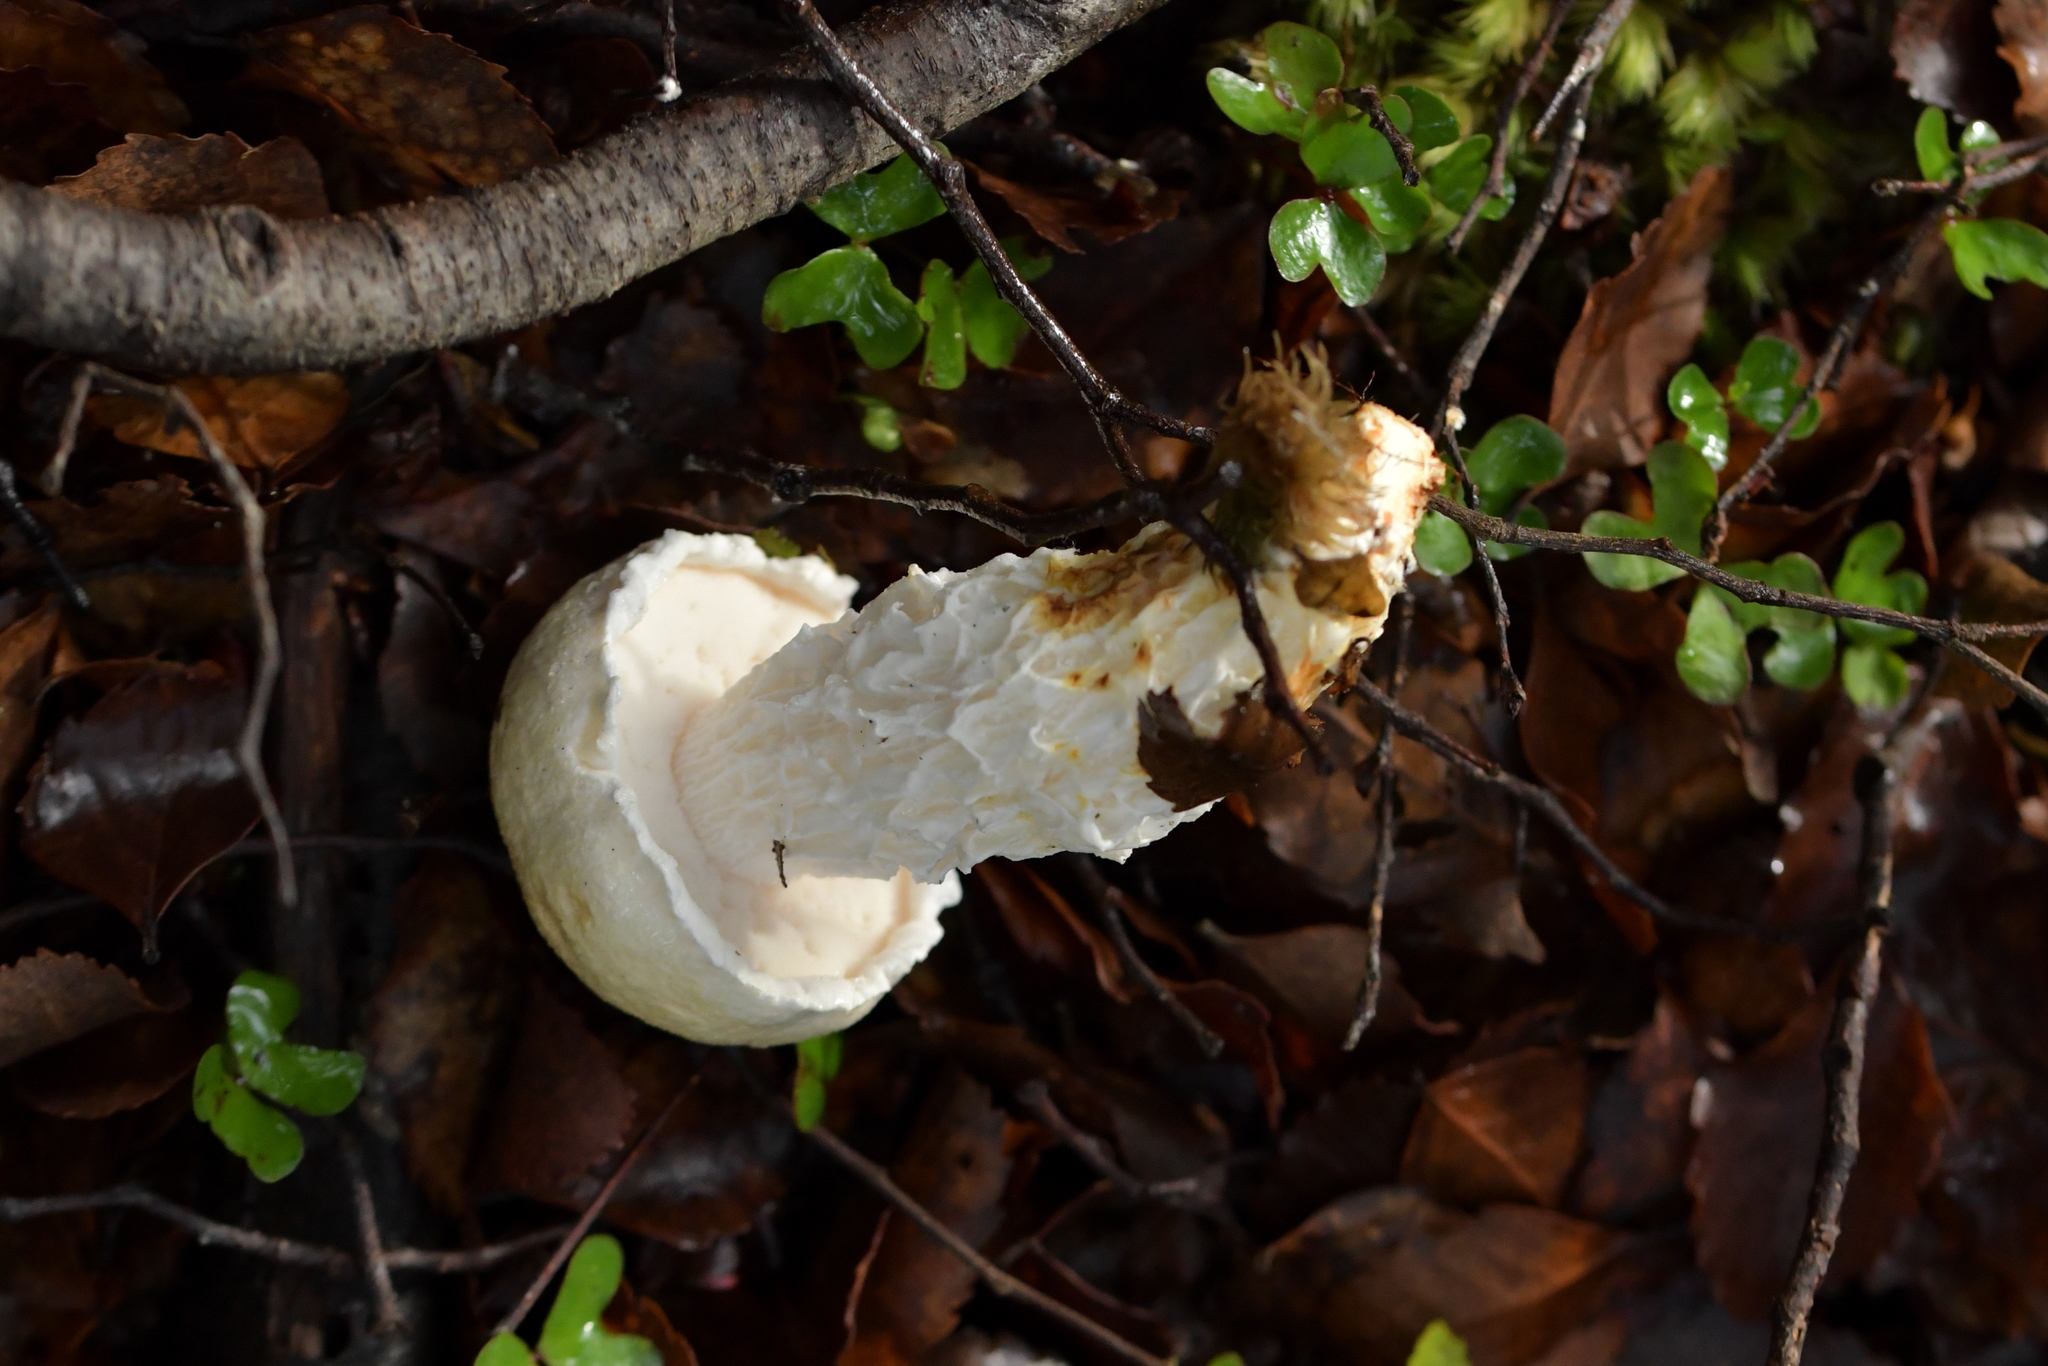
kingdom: Fungi
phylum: Basidiomycota
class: Agaricomycetes
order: Boletales
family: Boletaceae
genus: Fistulinella
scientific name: Fistulinella nivea
